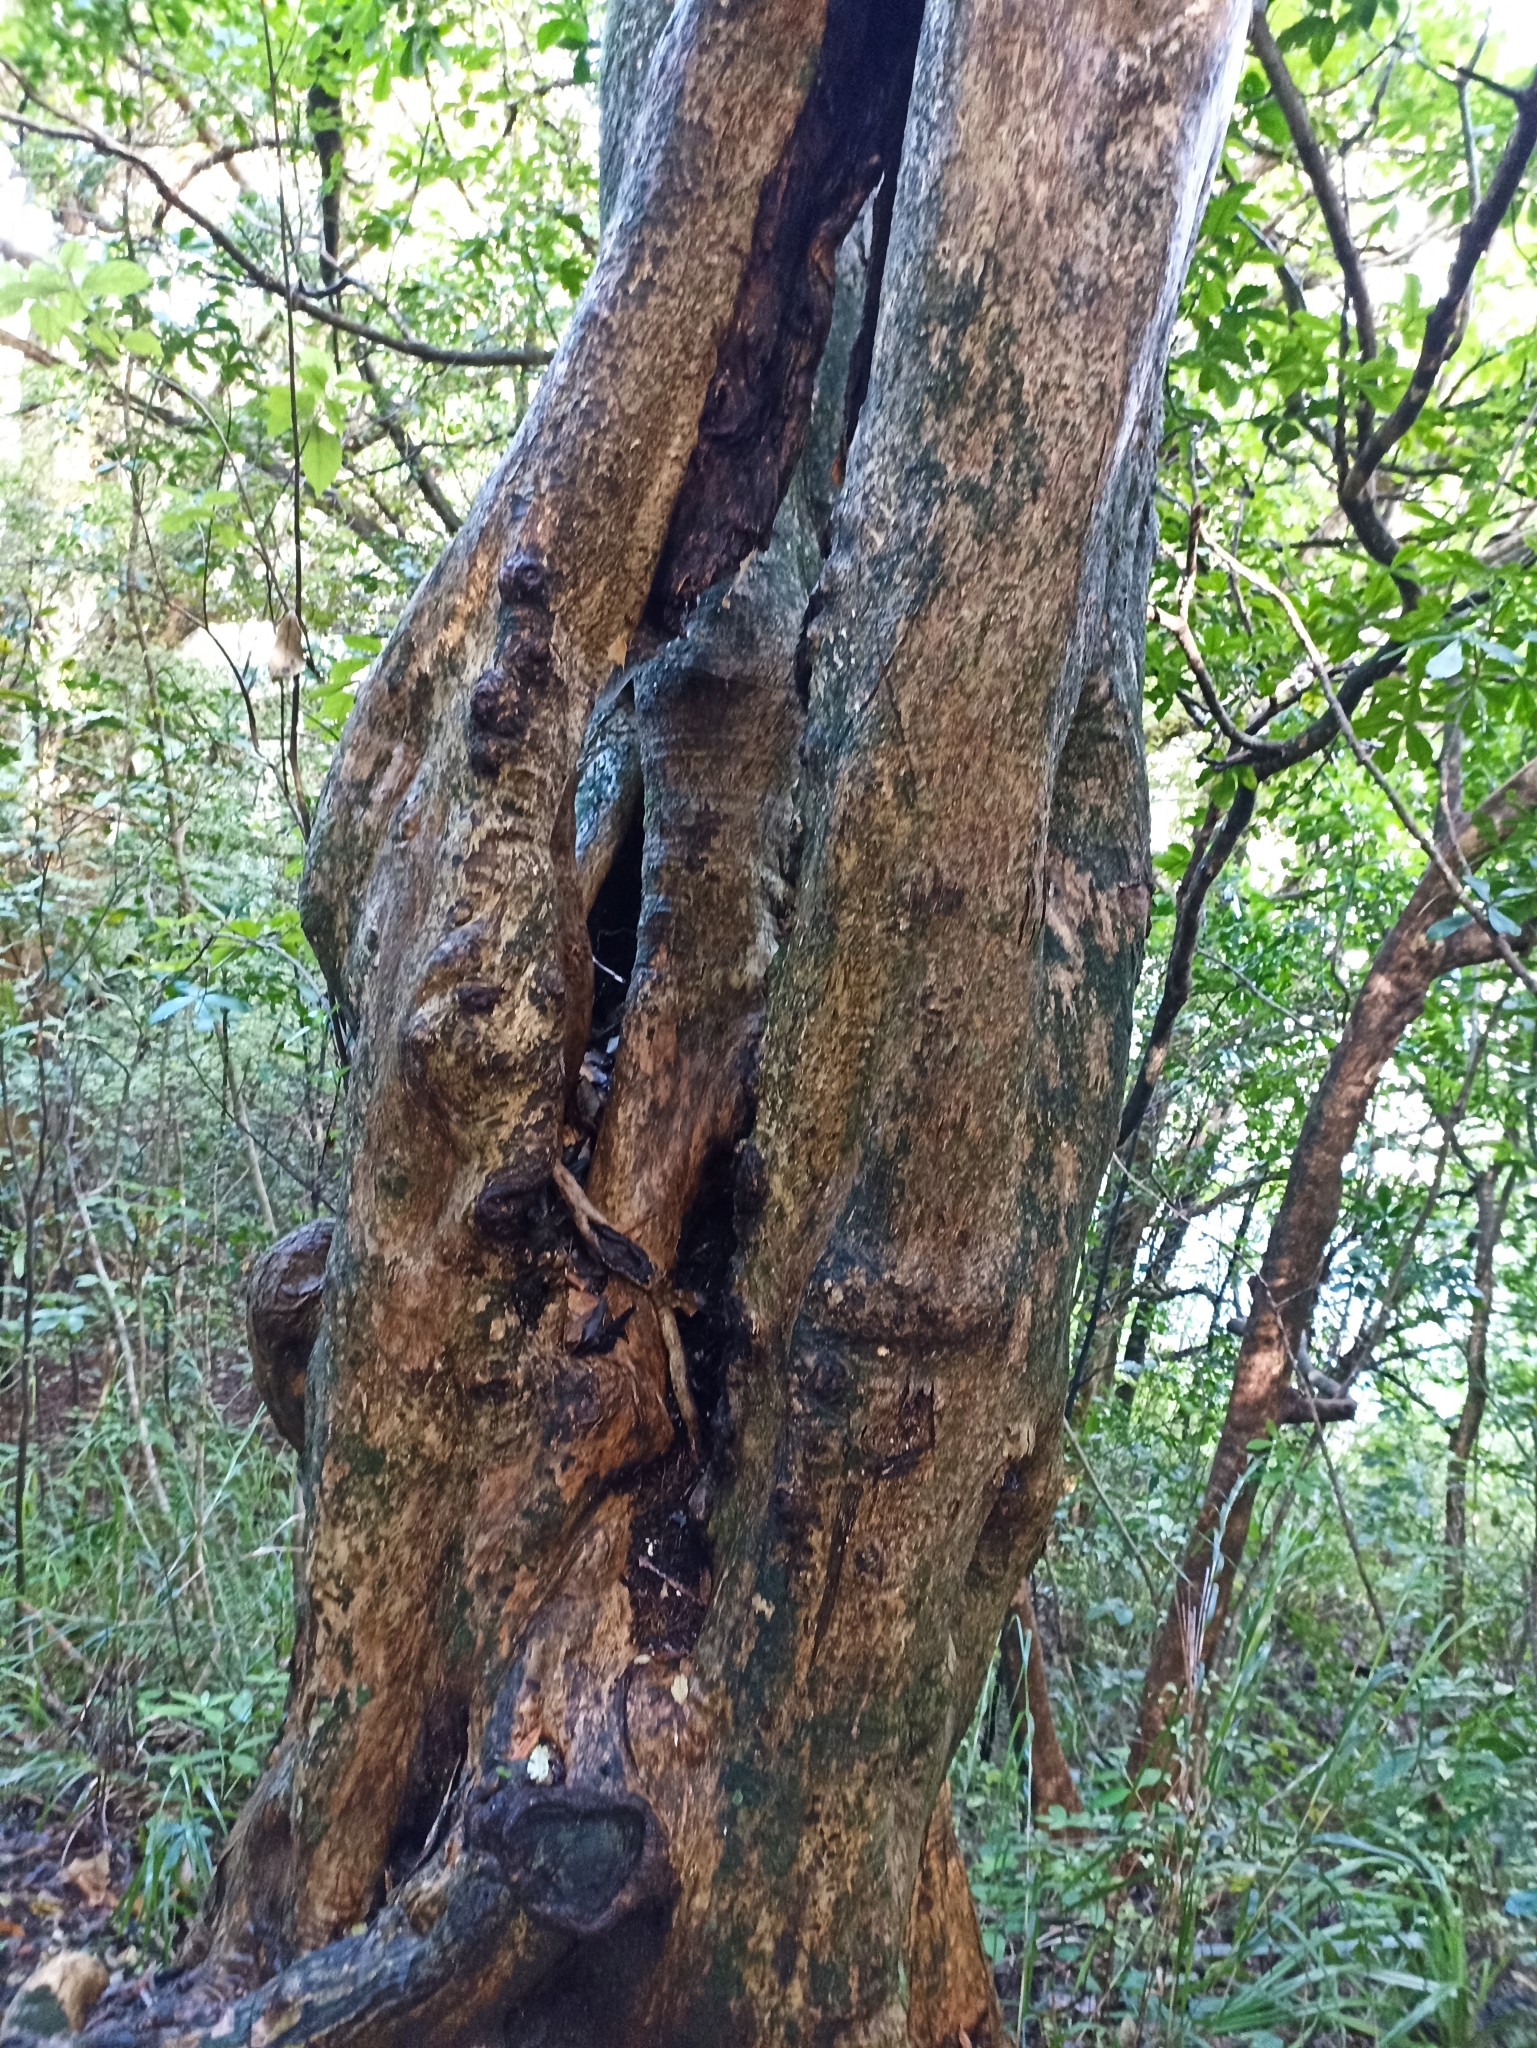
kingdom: Plantae
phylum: Tracheophyta
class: Magnoliopsida
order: Lamiales
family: Lamiaceae
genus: Vitex
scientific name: Vitex lucens
